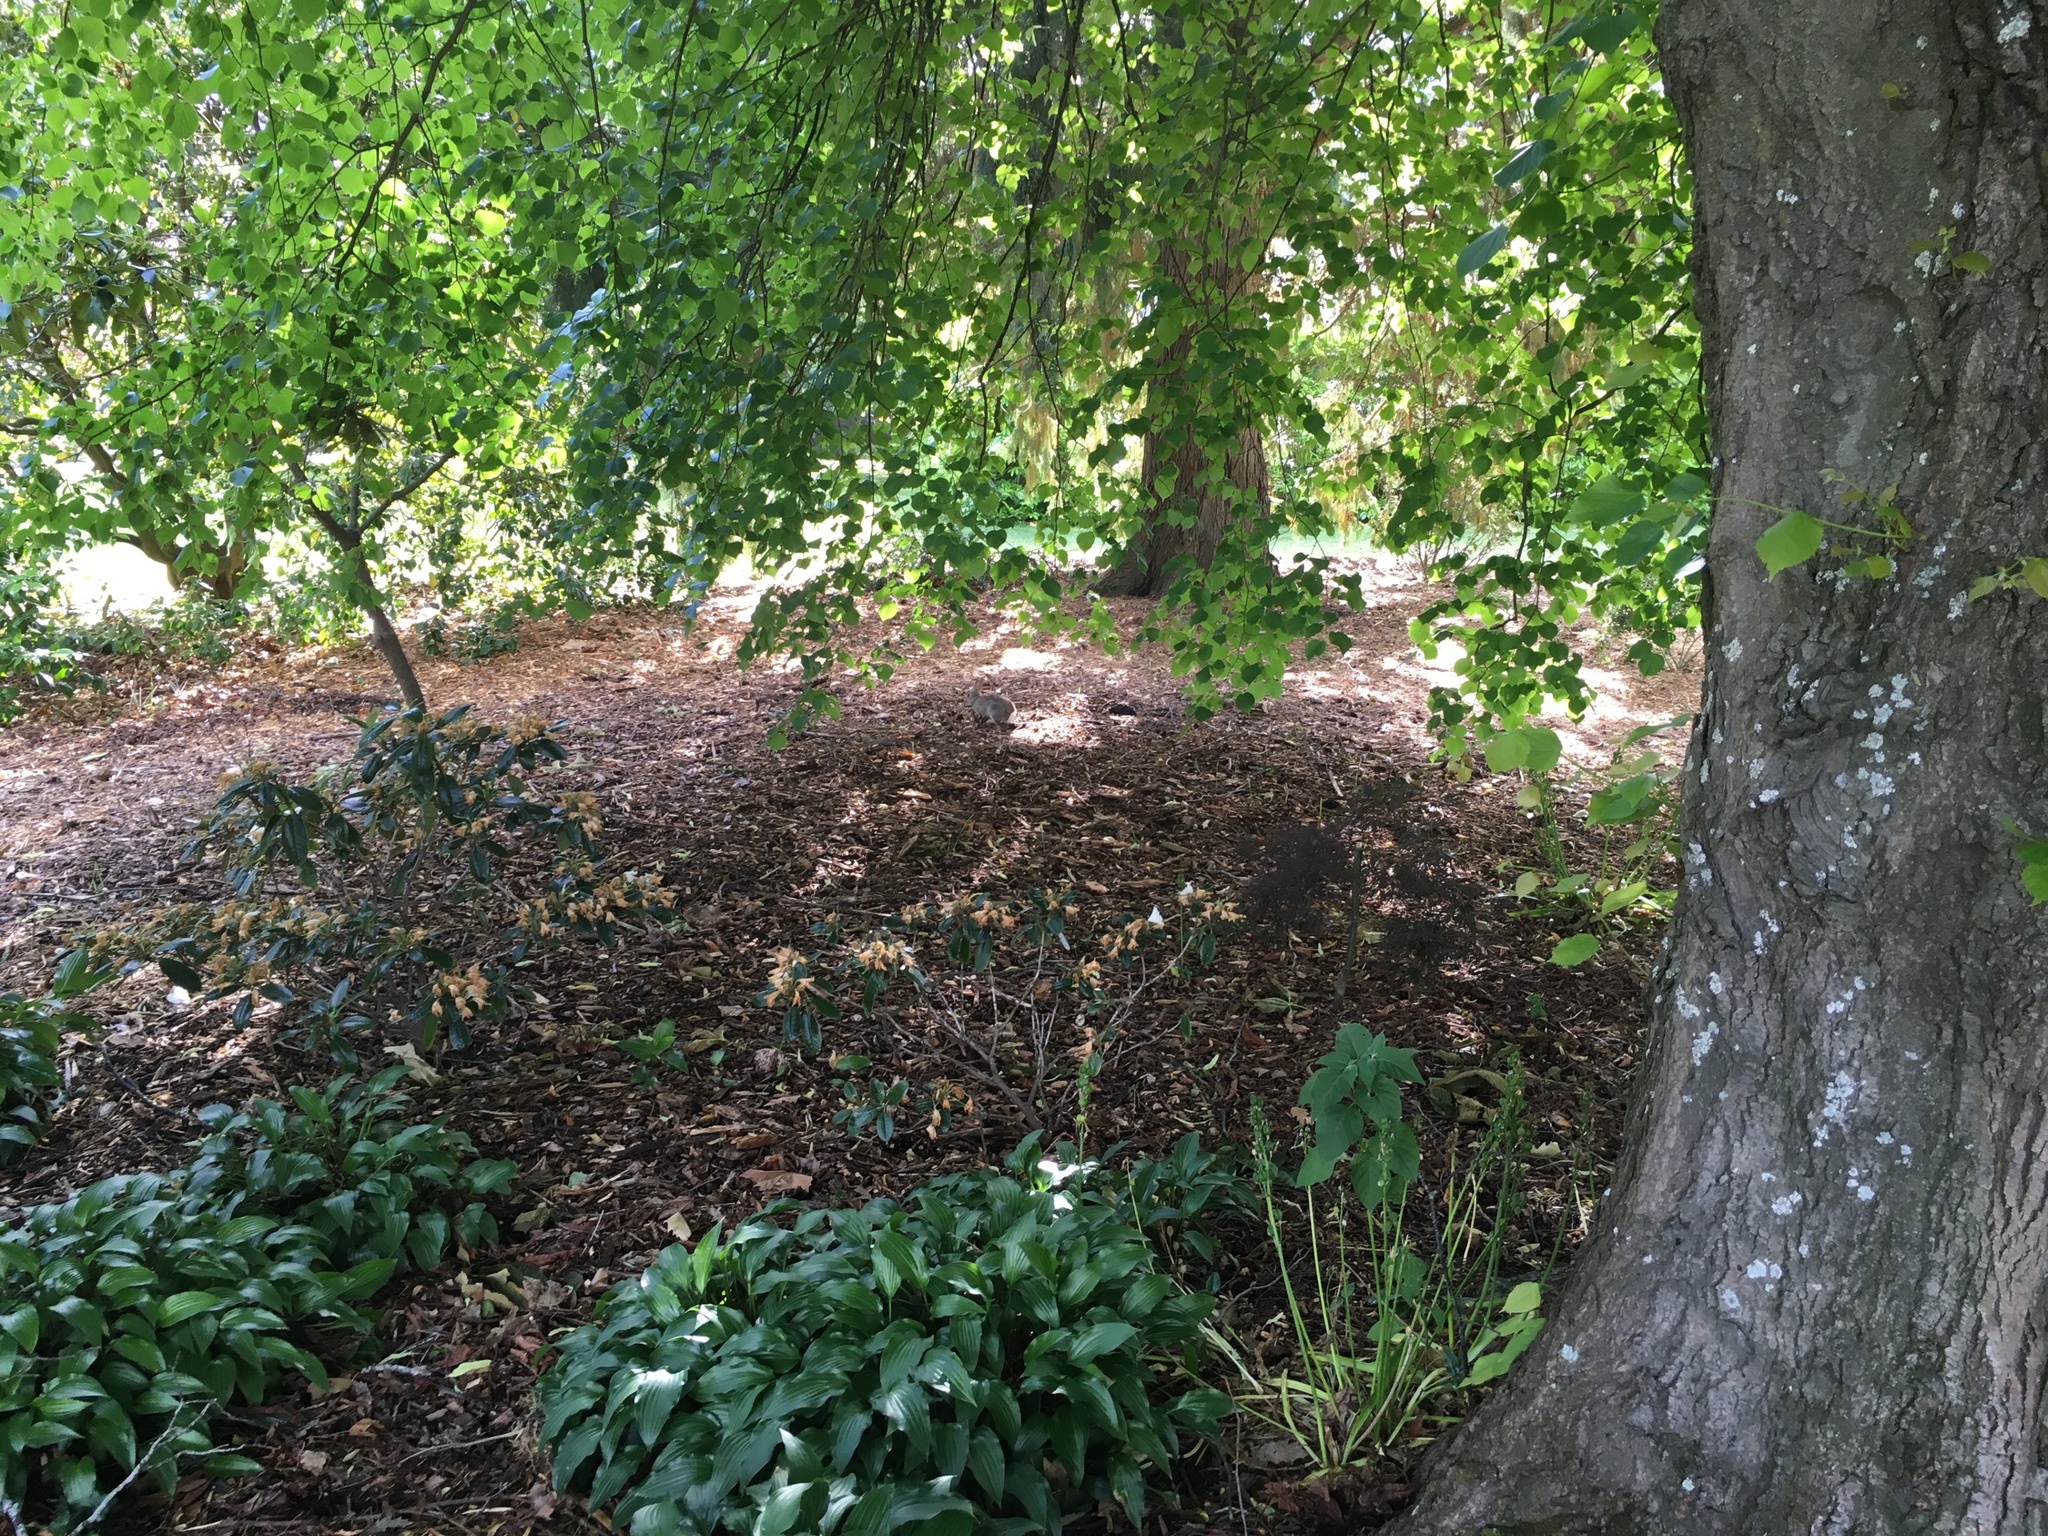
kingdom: Animalia
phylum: Chordata
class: Mammalia
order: Lagomorpha
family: Leporidae
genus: Oryctolagus
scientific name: Oryctolagus cuniculus
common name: European rabbit
